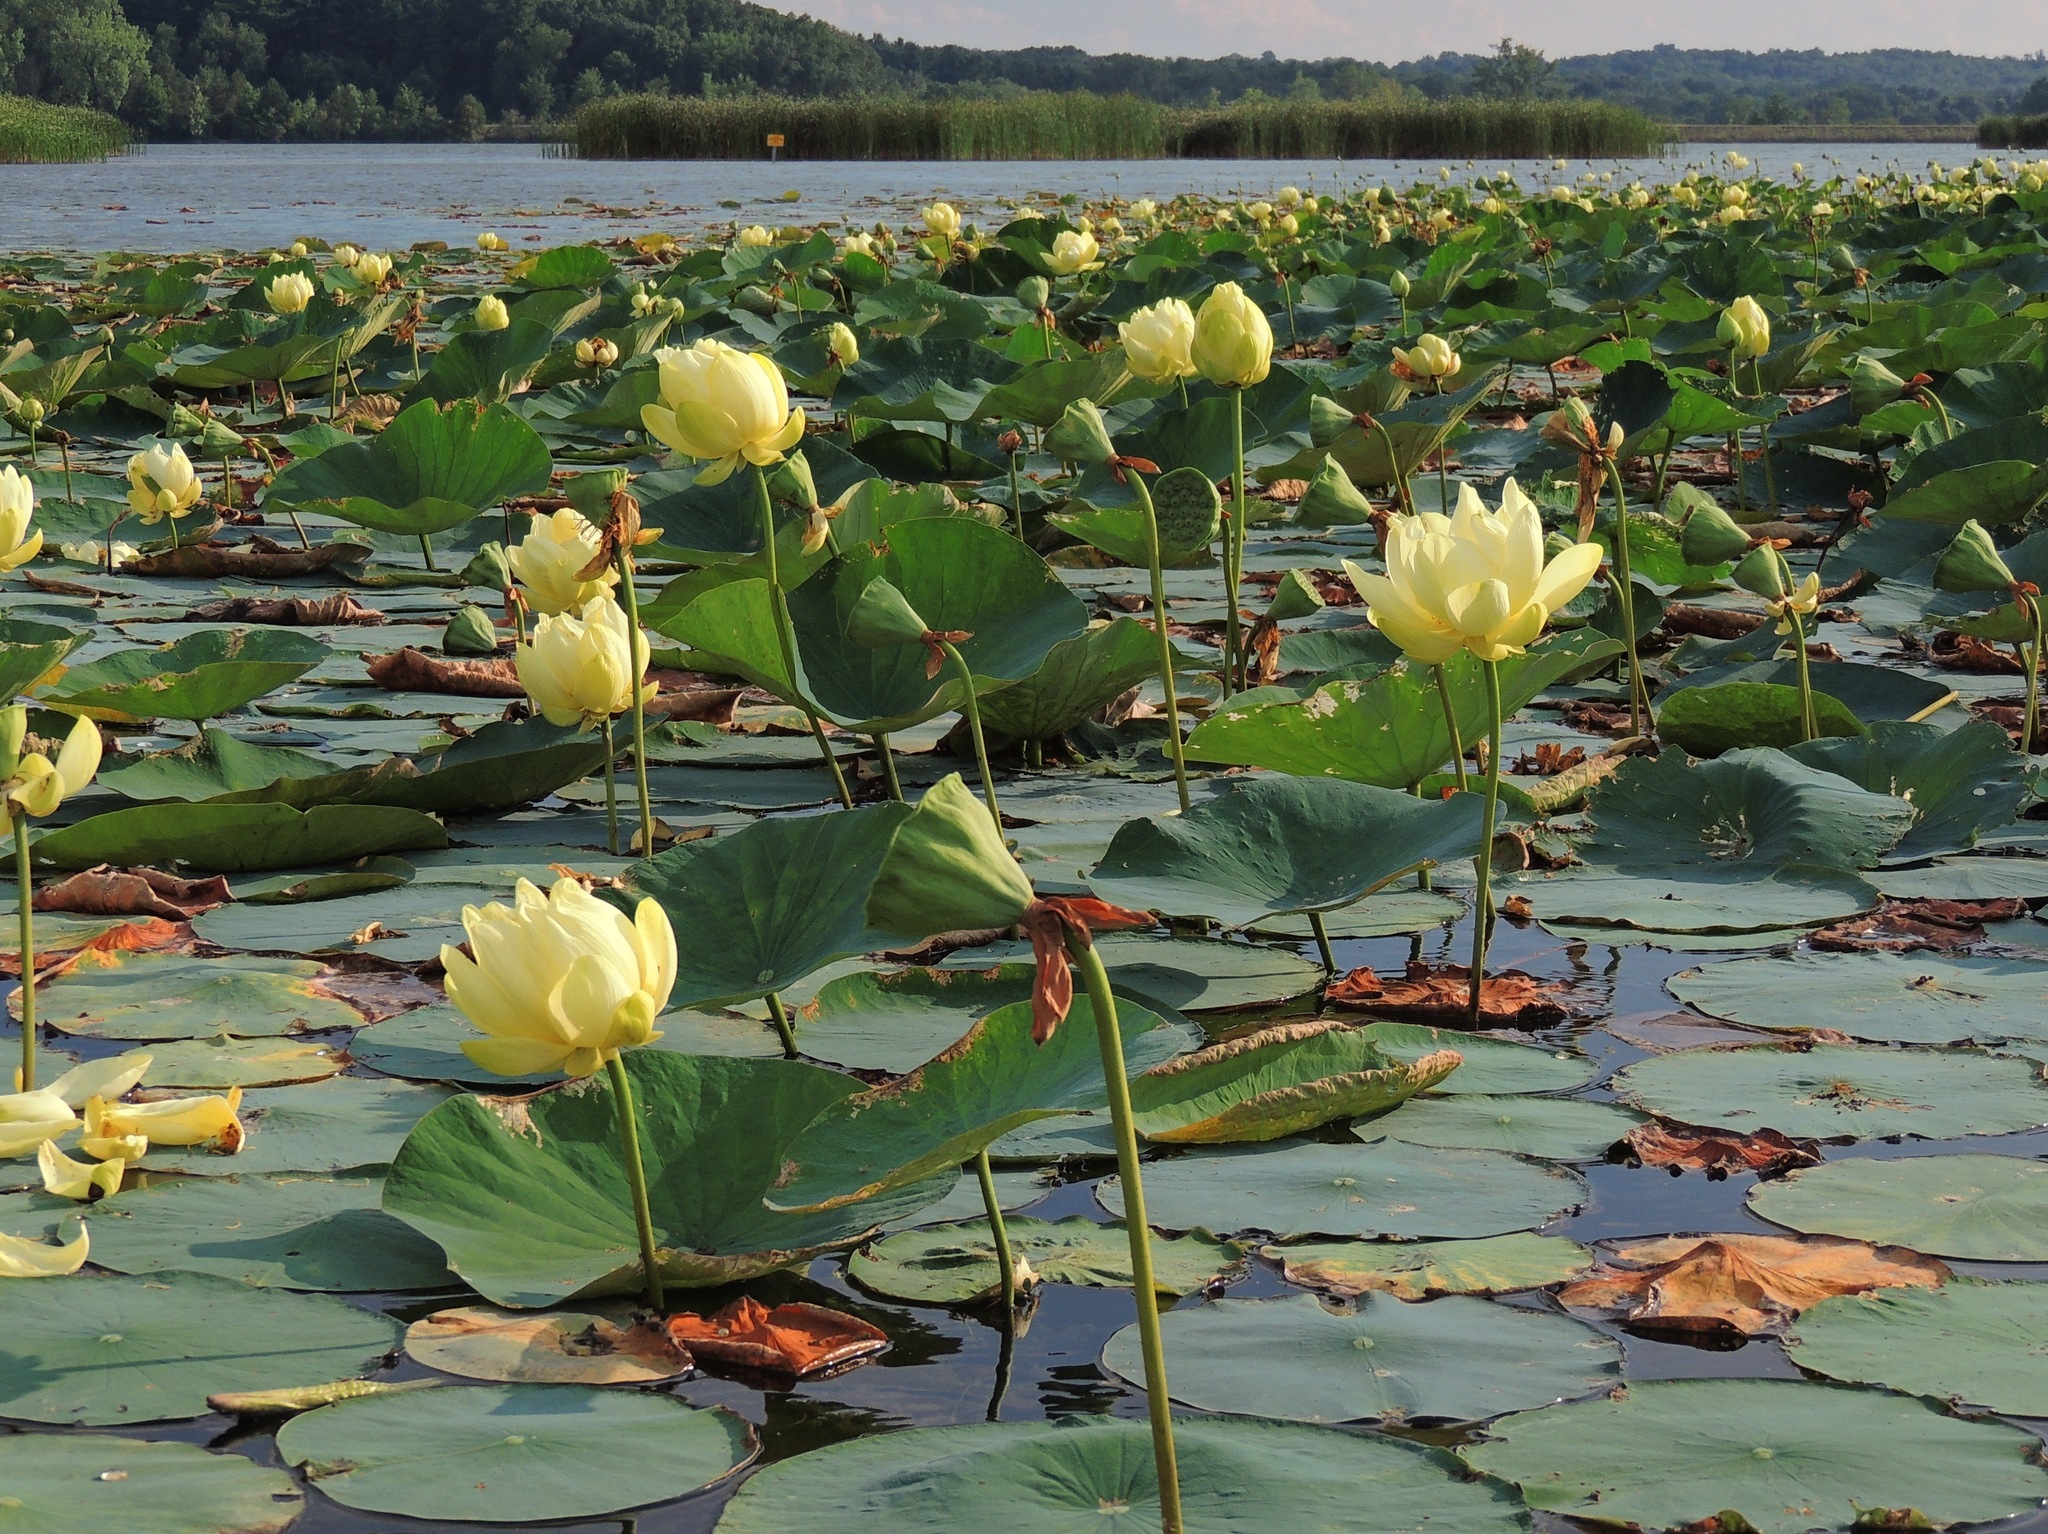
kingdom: Plantae
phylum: Tracheophyta
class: Magnoliopsida
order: Proteales
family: Nelumbonaceae
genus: Nelumbo
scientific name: Nelumbo lutea
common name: American lotus
